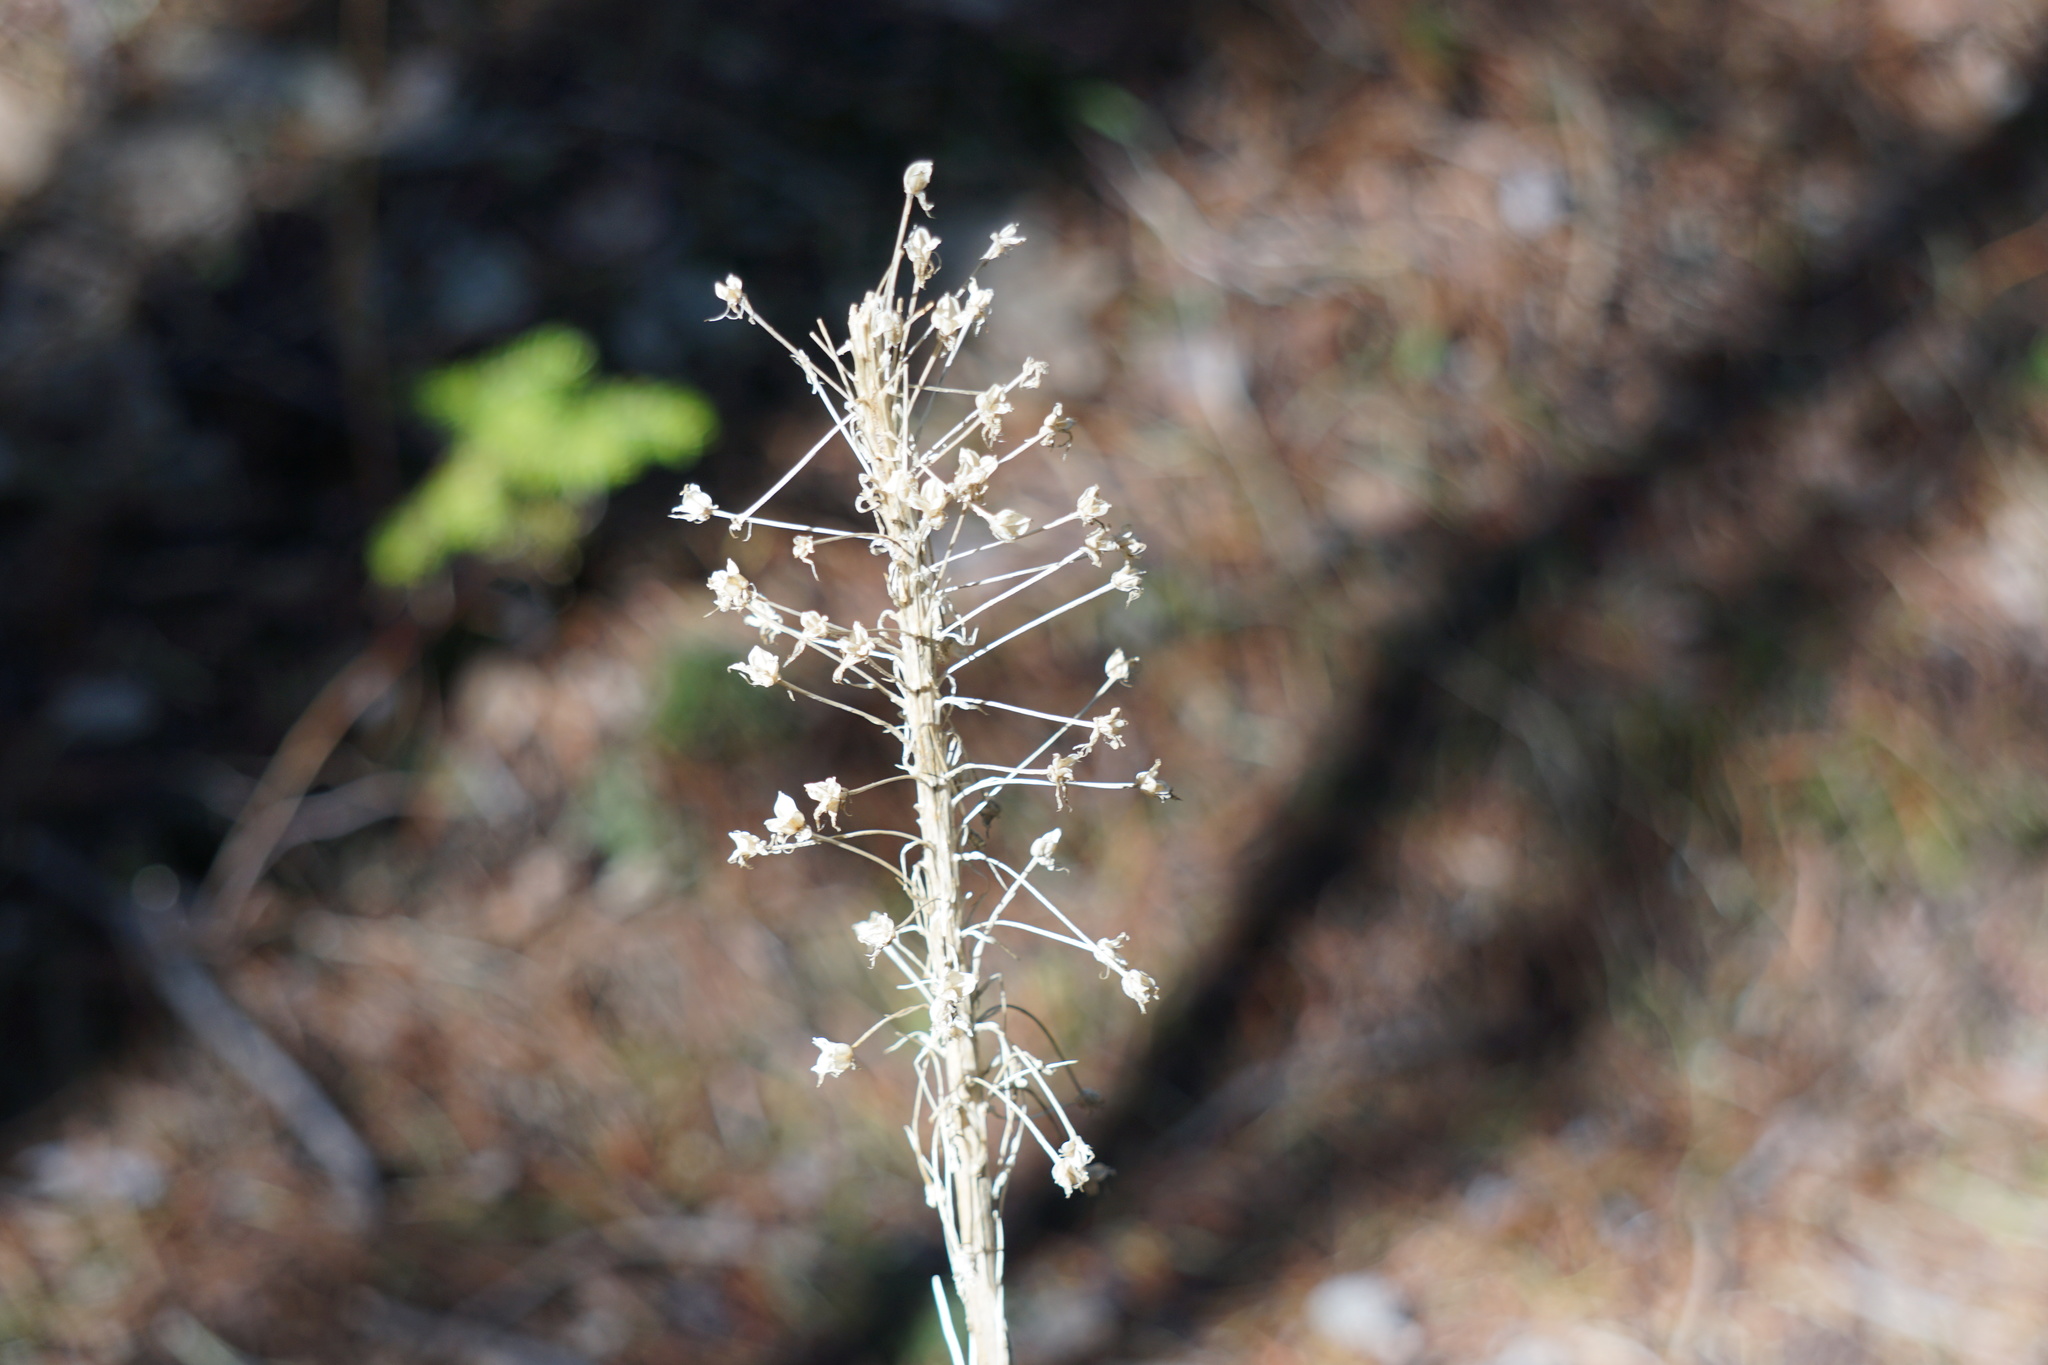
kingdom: Plantae
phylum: Tracheophyta
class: Liliopsida
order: Liliales
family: Melanthiaceae
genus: Xerophyllum
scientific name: Xerophyllum tenax
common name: Bear-grass
